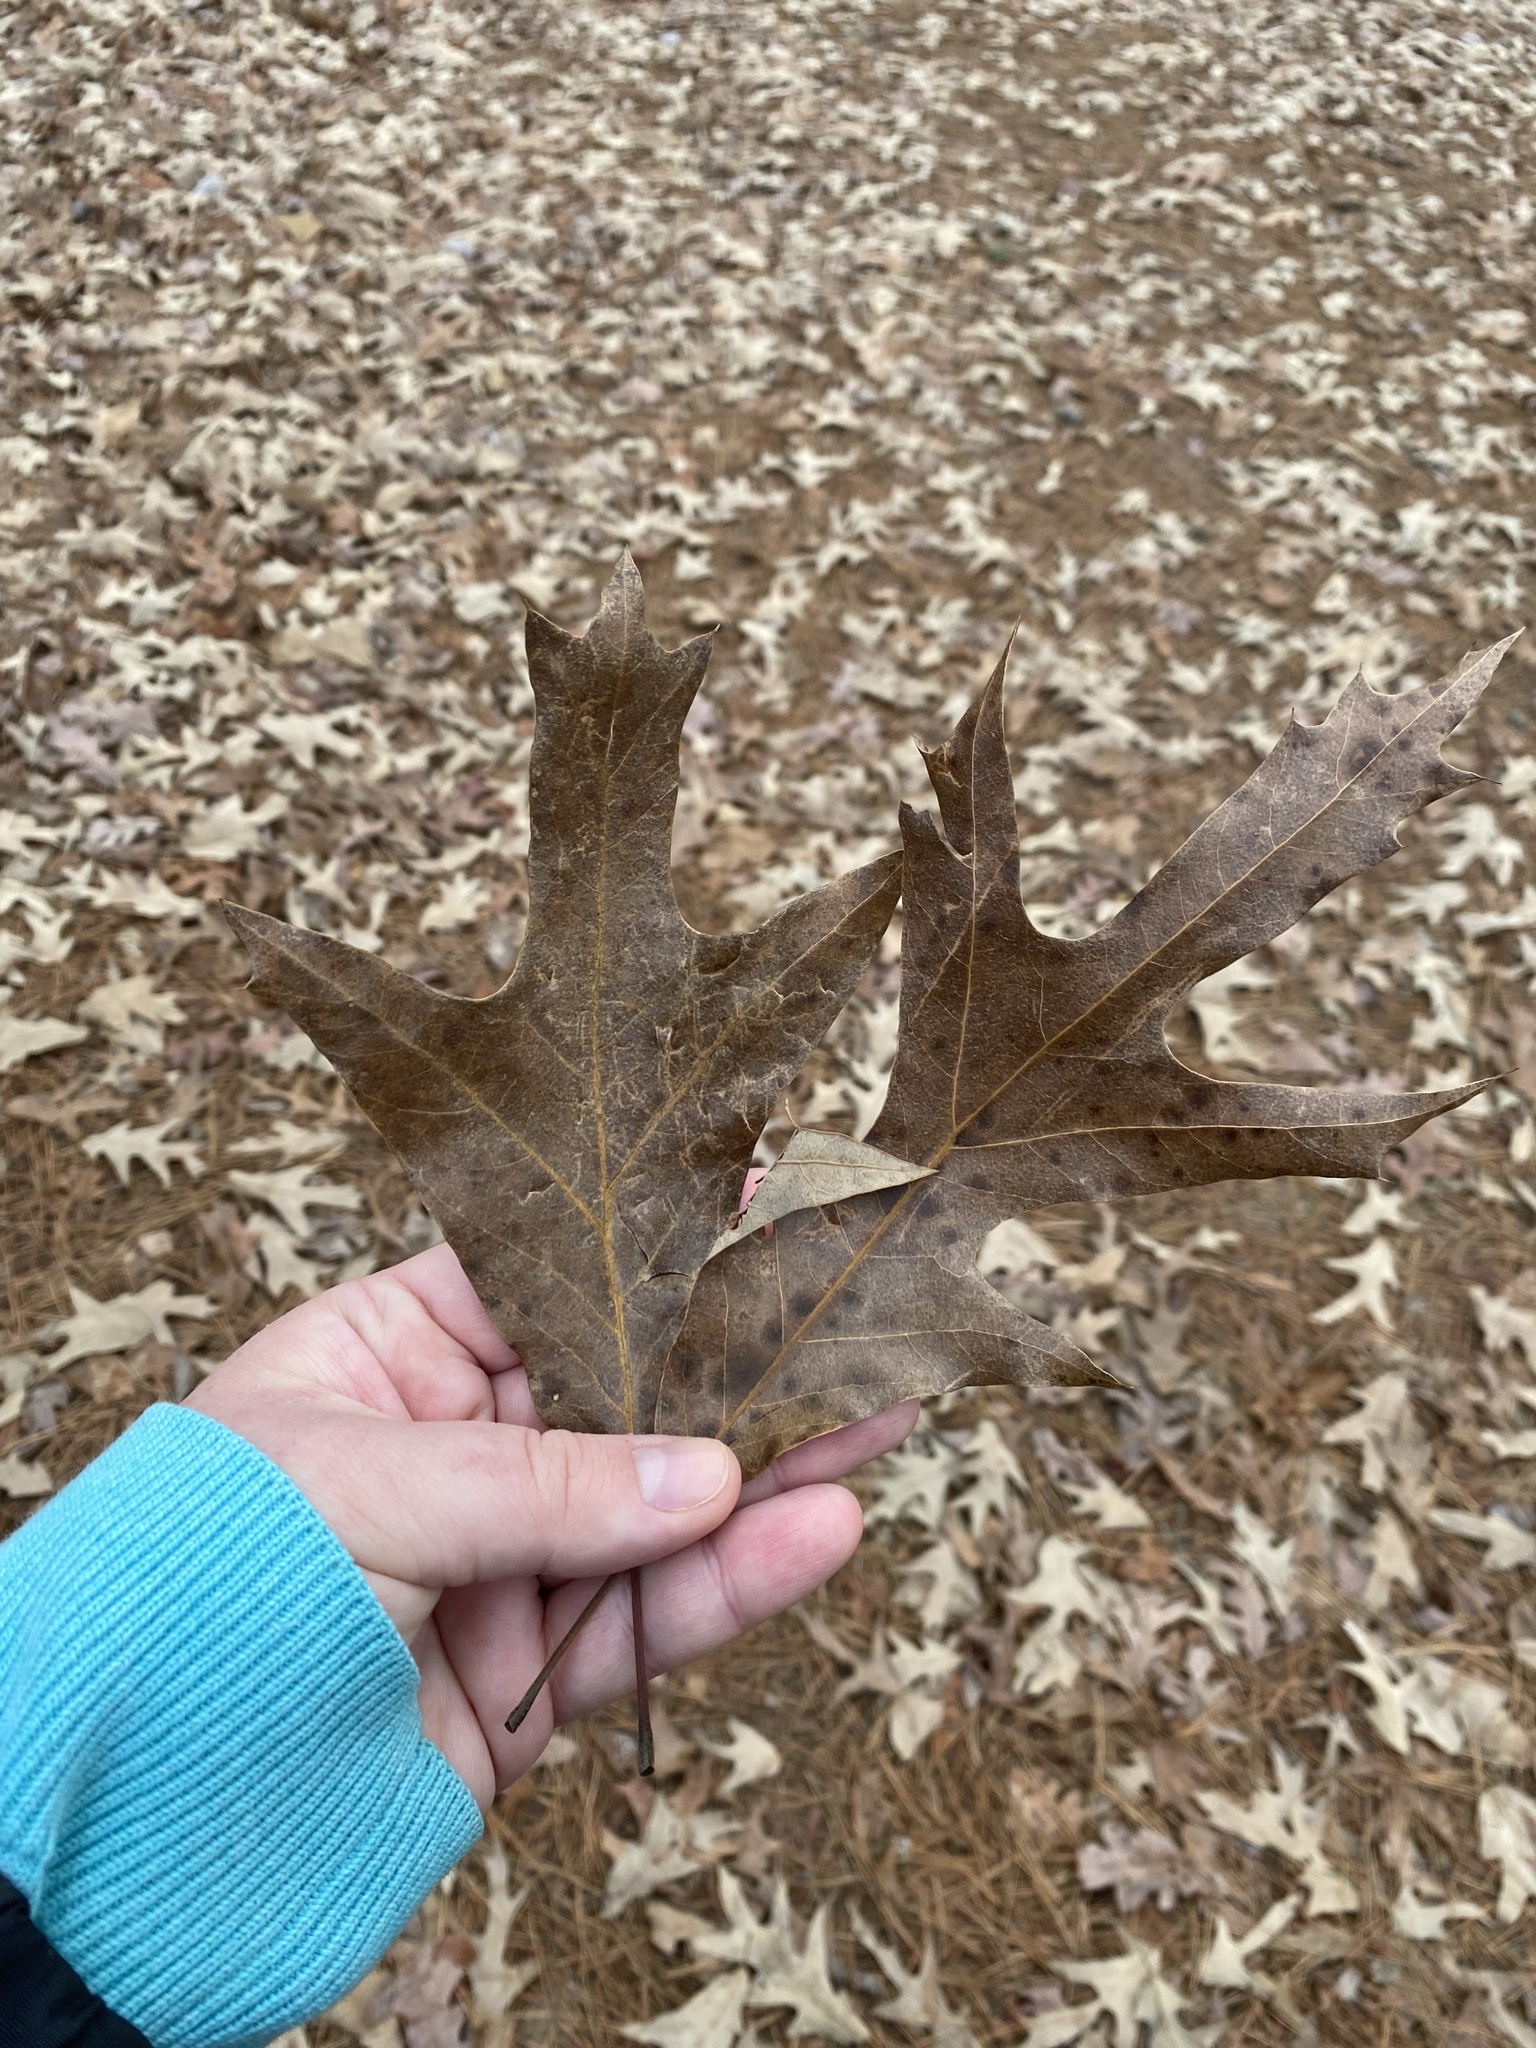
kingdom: Plantae
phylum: Tracheophyta
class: Magnoliopsida
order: Fagales
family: Fagaceae
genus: Quercus
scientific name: Quercus falcata
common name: Southern red oak
